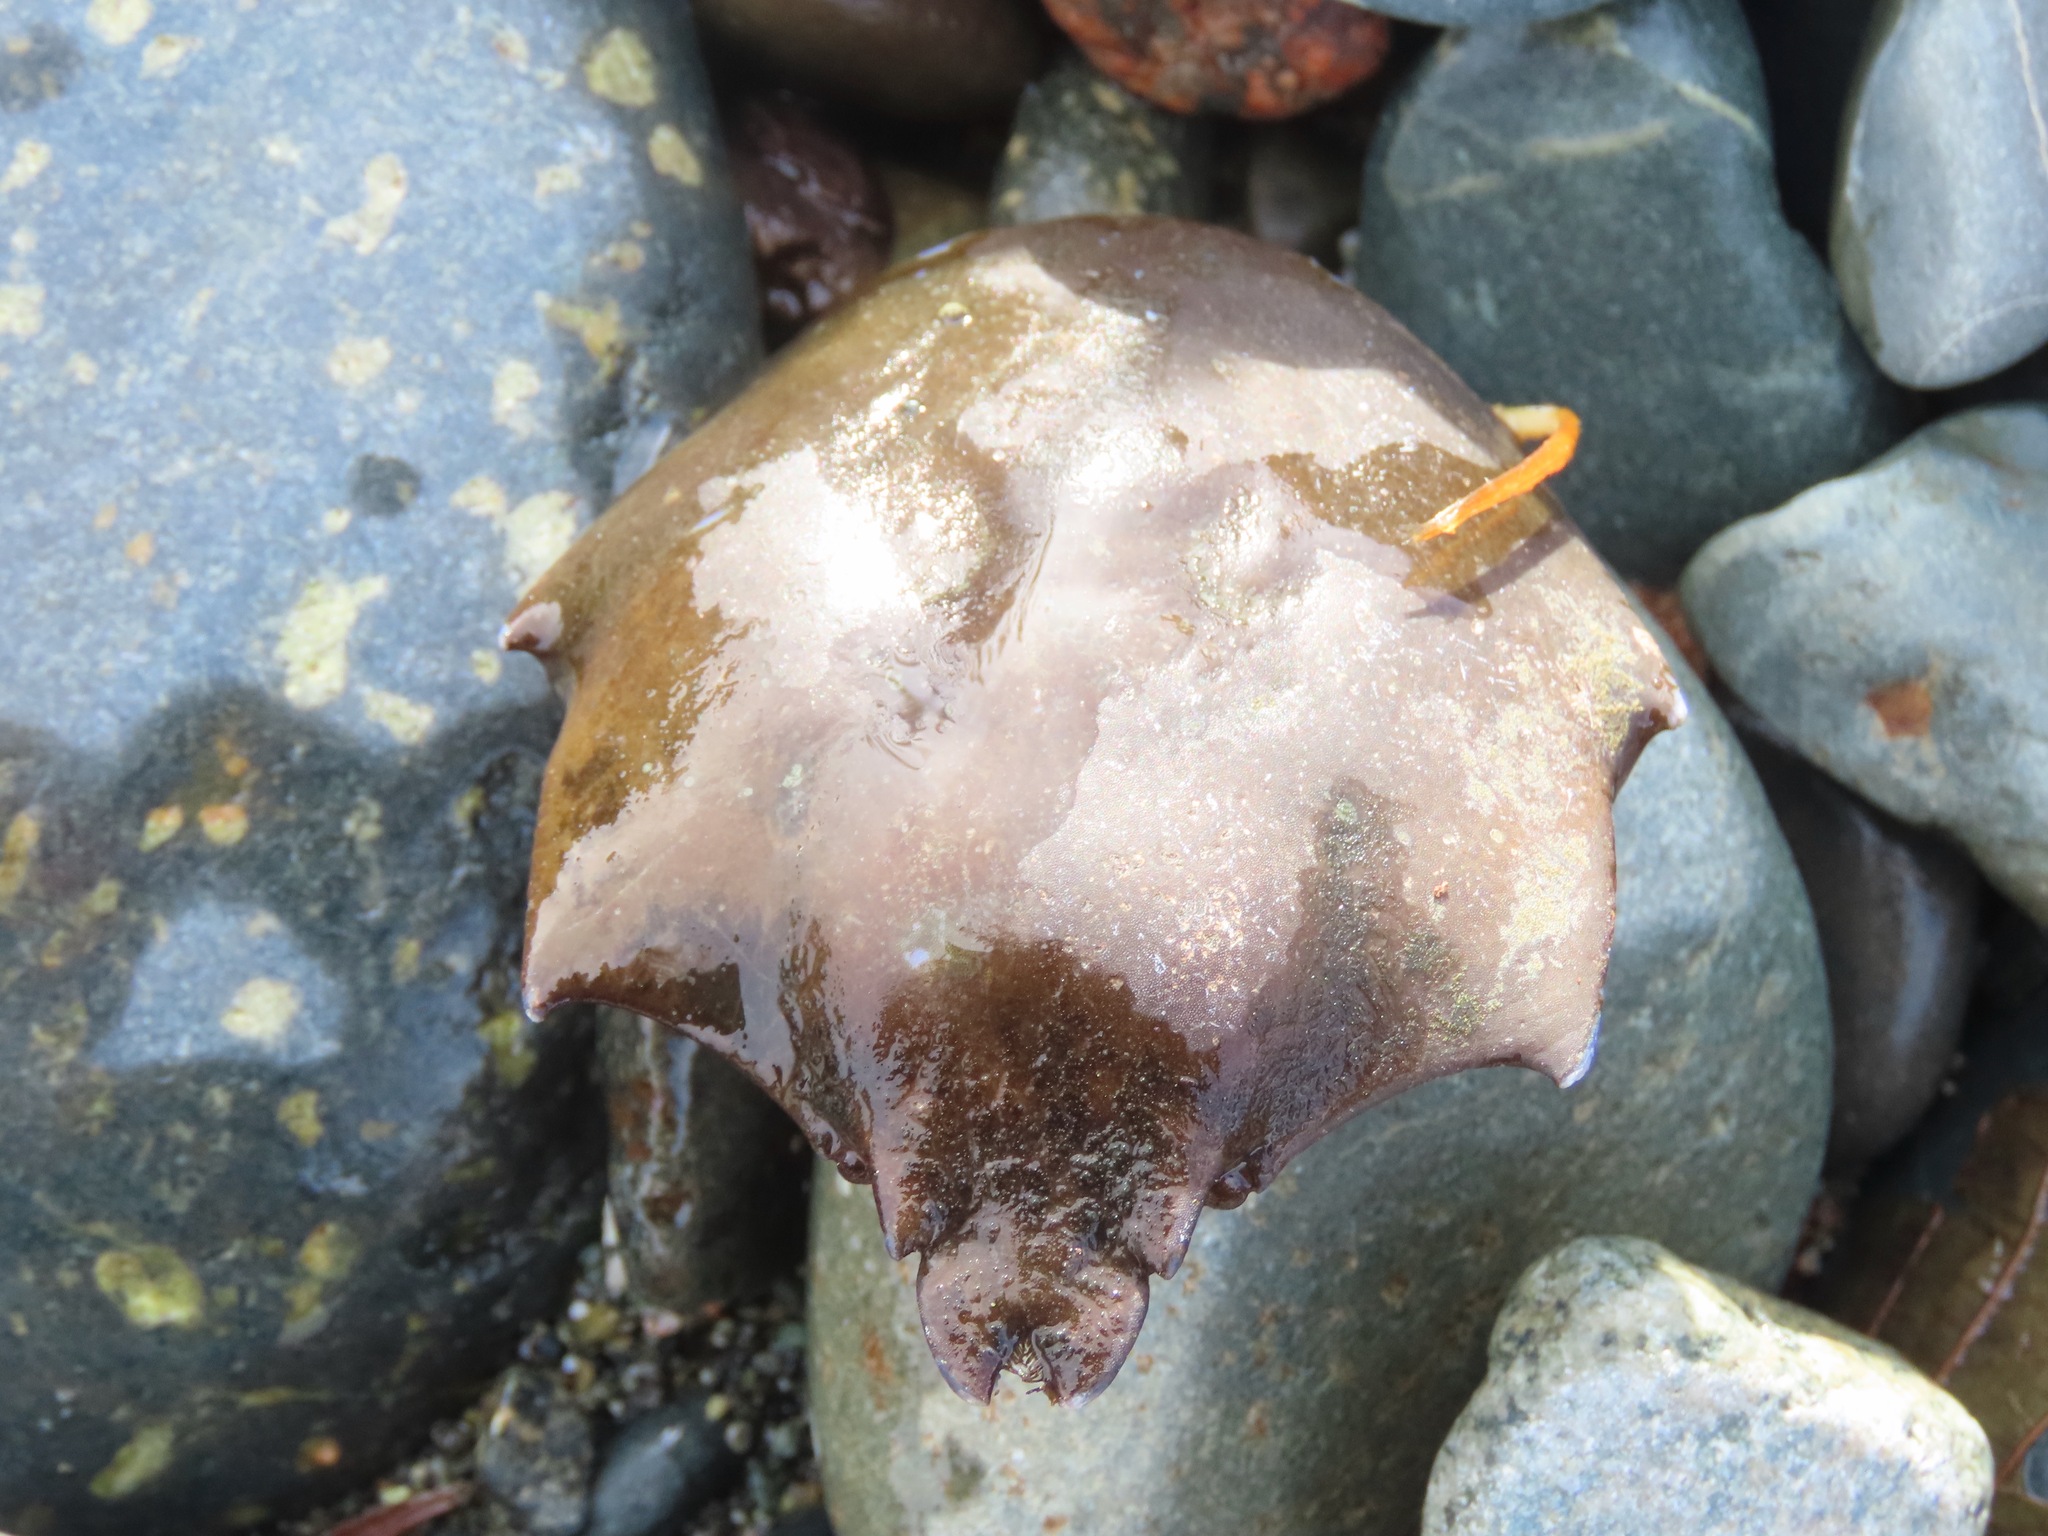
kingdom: Animalia
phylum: Arthropoda
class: Malacostraca
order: Decapoda
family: Epialtidae
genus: Pugettia
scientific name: Pugettia producta
